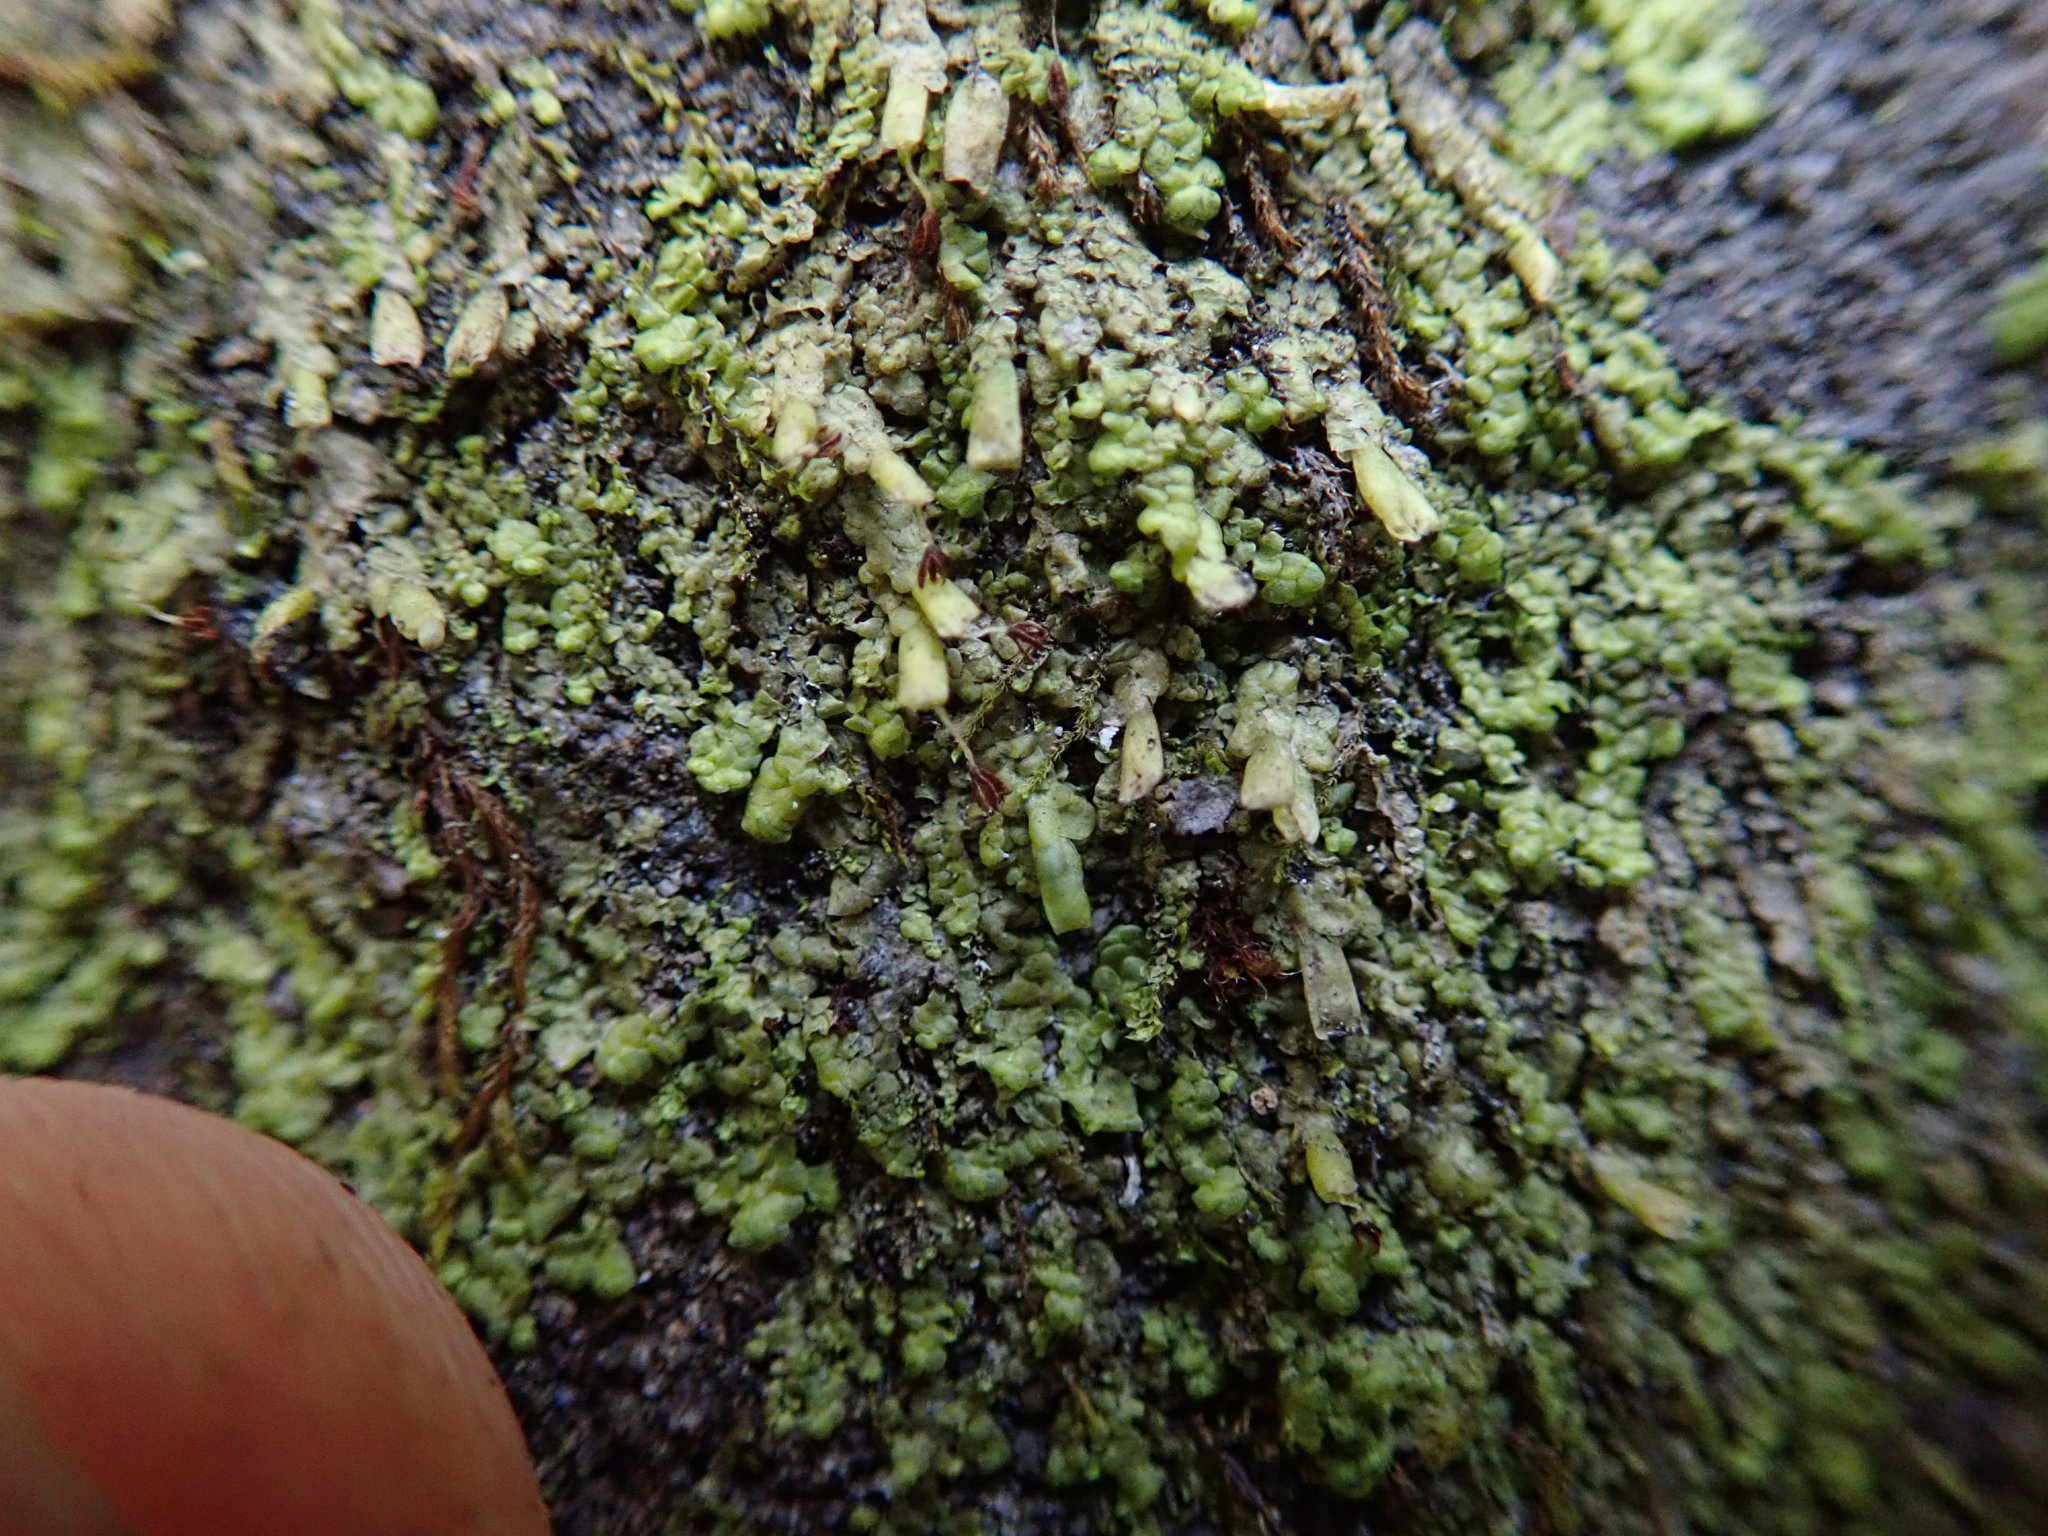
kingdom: Plantae
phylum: Marchantiophyta
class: Jungermanniopsida
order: Porellales
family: Radulaceae
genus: Radula
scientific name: Radula complanata
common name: Flat-leaved scalewort
